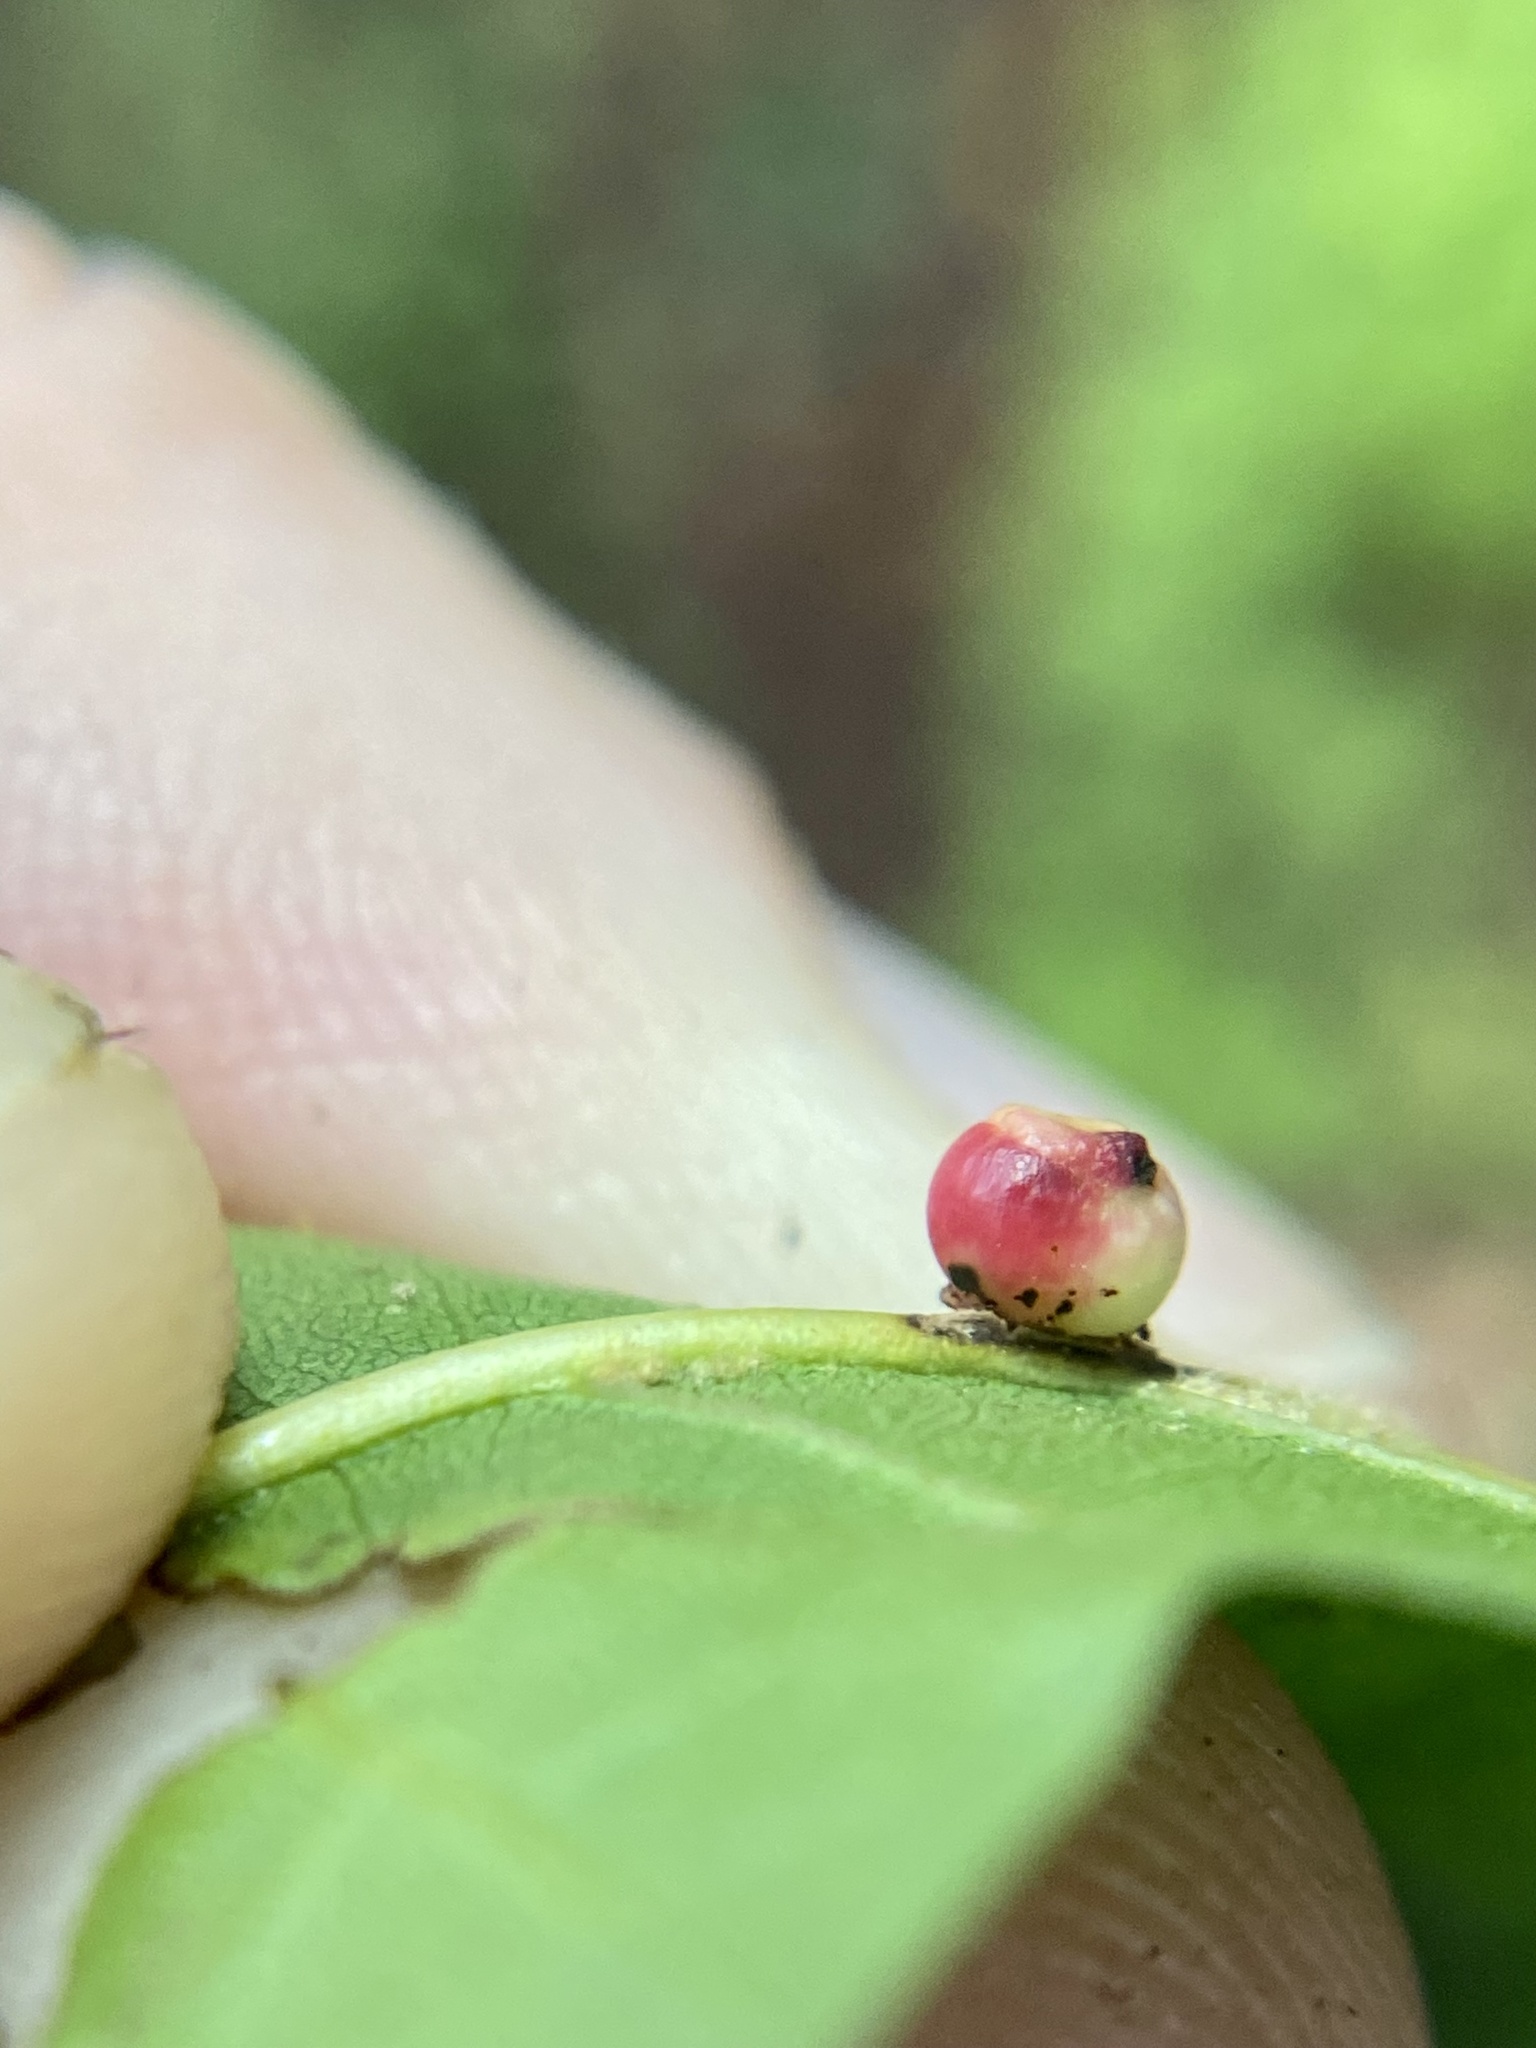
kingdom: Animalia
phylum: Arthropoda
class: Insecta
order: Hymenoptera
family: Cynipidae
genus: Kokkocynips
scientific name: Kokkocynips rileyi
